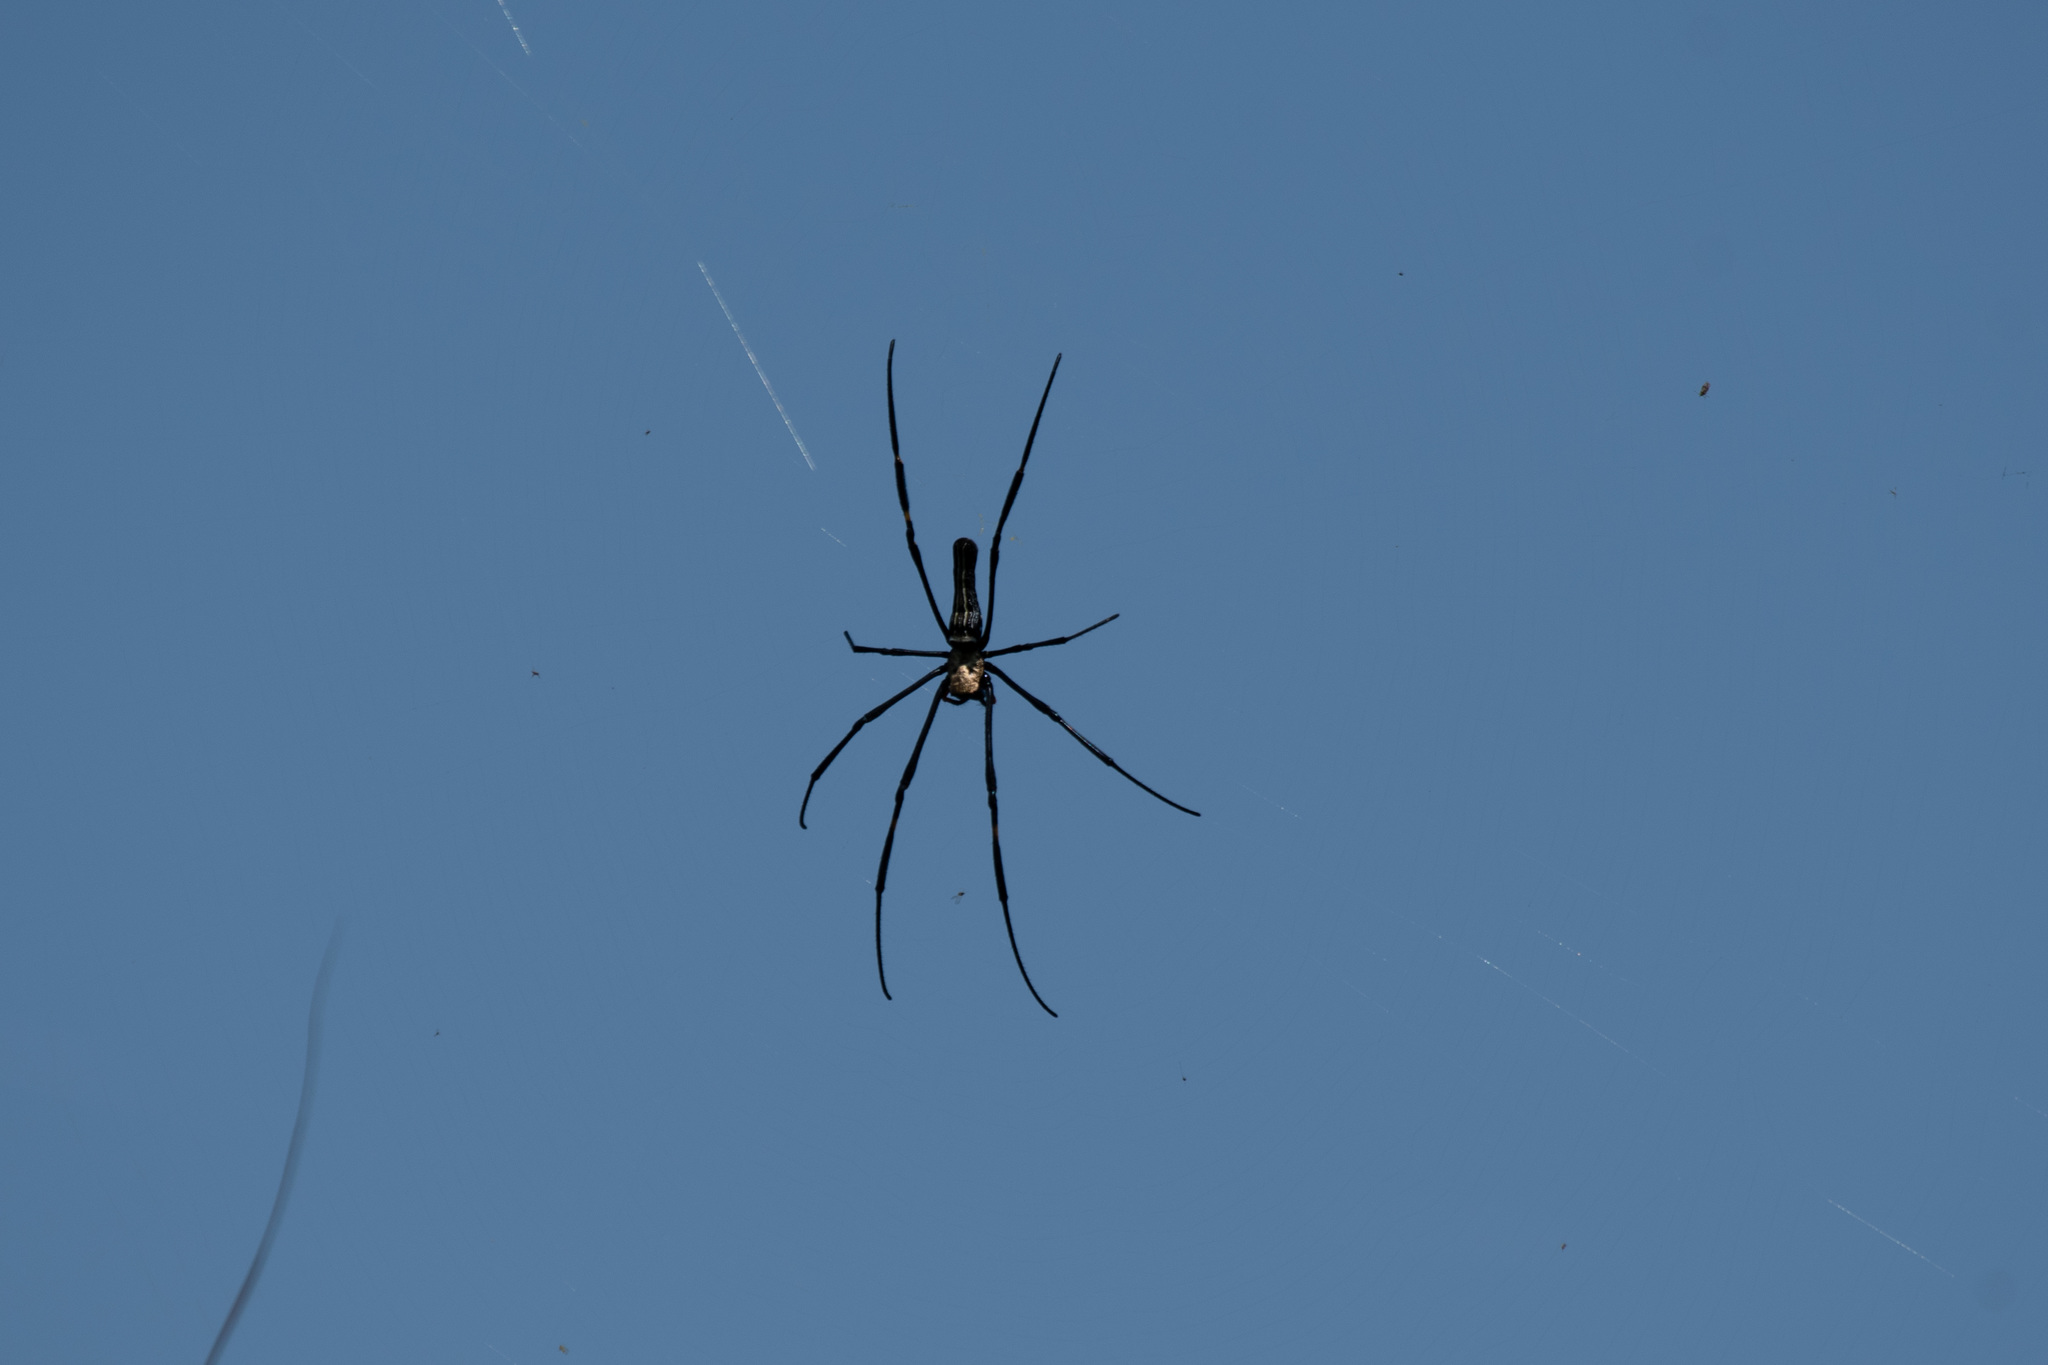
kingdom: Animalia
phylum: Arthropoda
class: Arachnida
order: Araneae
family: Araneidae
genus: Nephila
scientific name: Nephila pilipes
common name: Giant golden orb weaver
